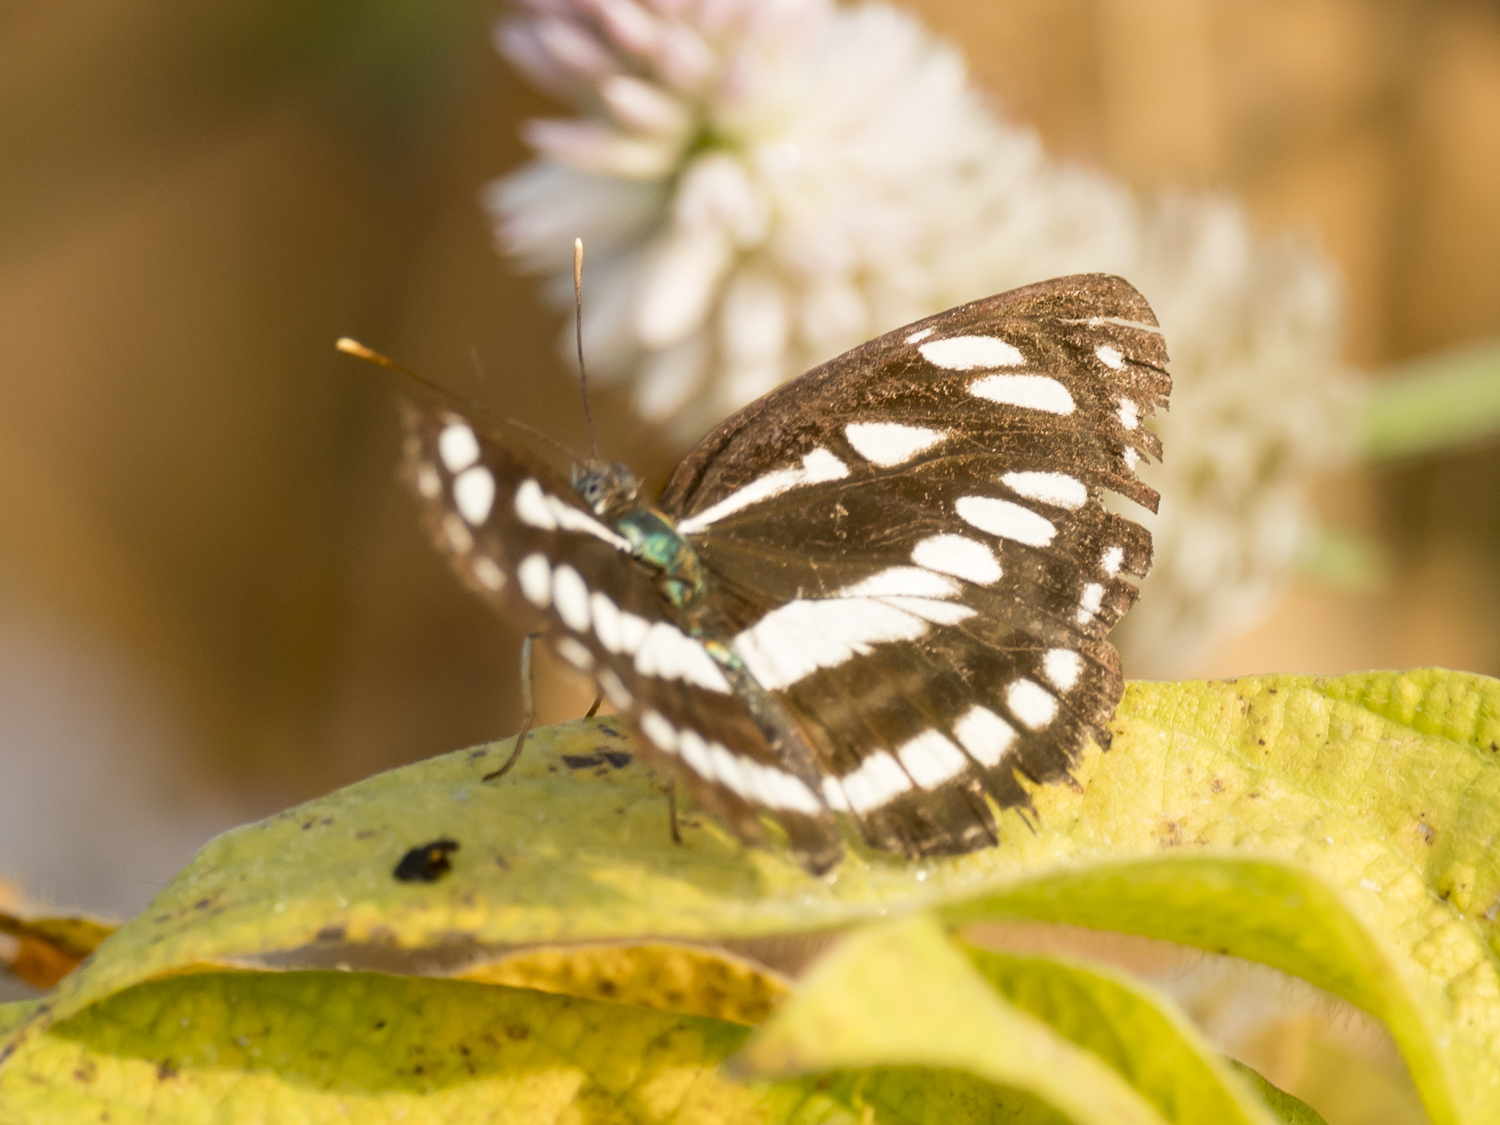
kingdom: Animalia
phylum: Arthropoda
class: Insecta
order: Lepidoptera
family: Nymphalidae
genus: Neptis
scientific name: Neptis hylas
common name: Common sailer
